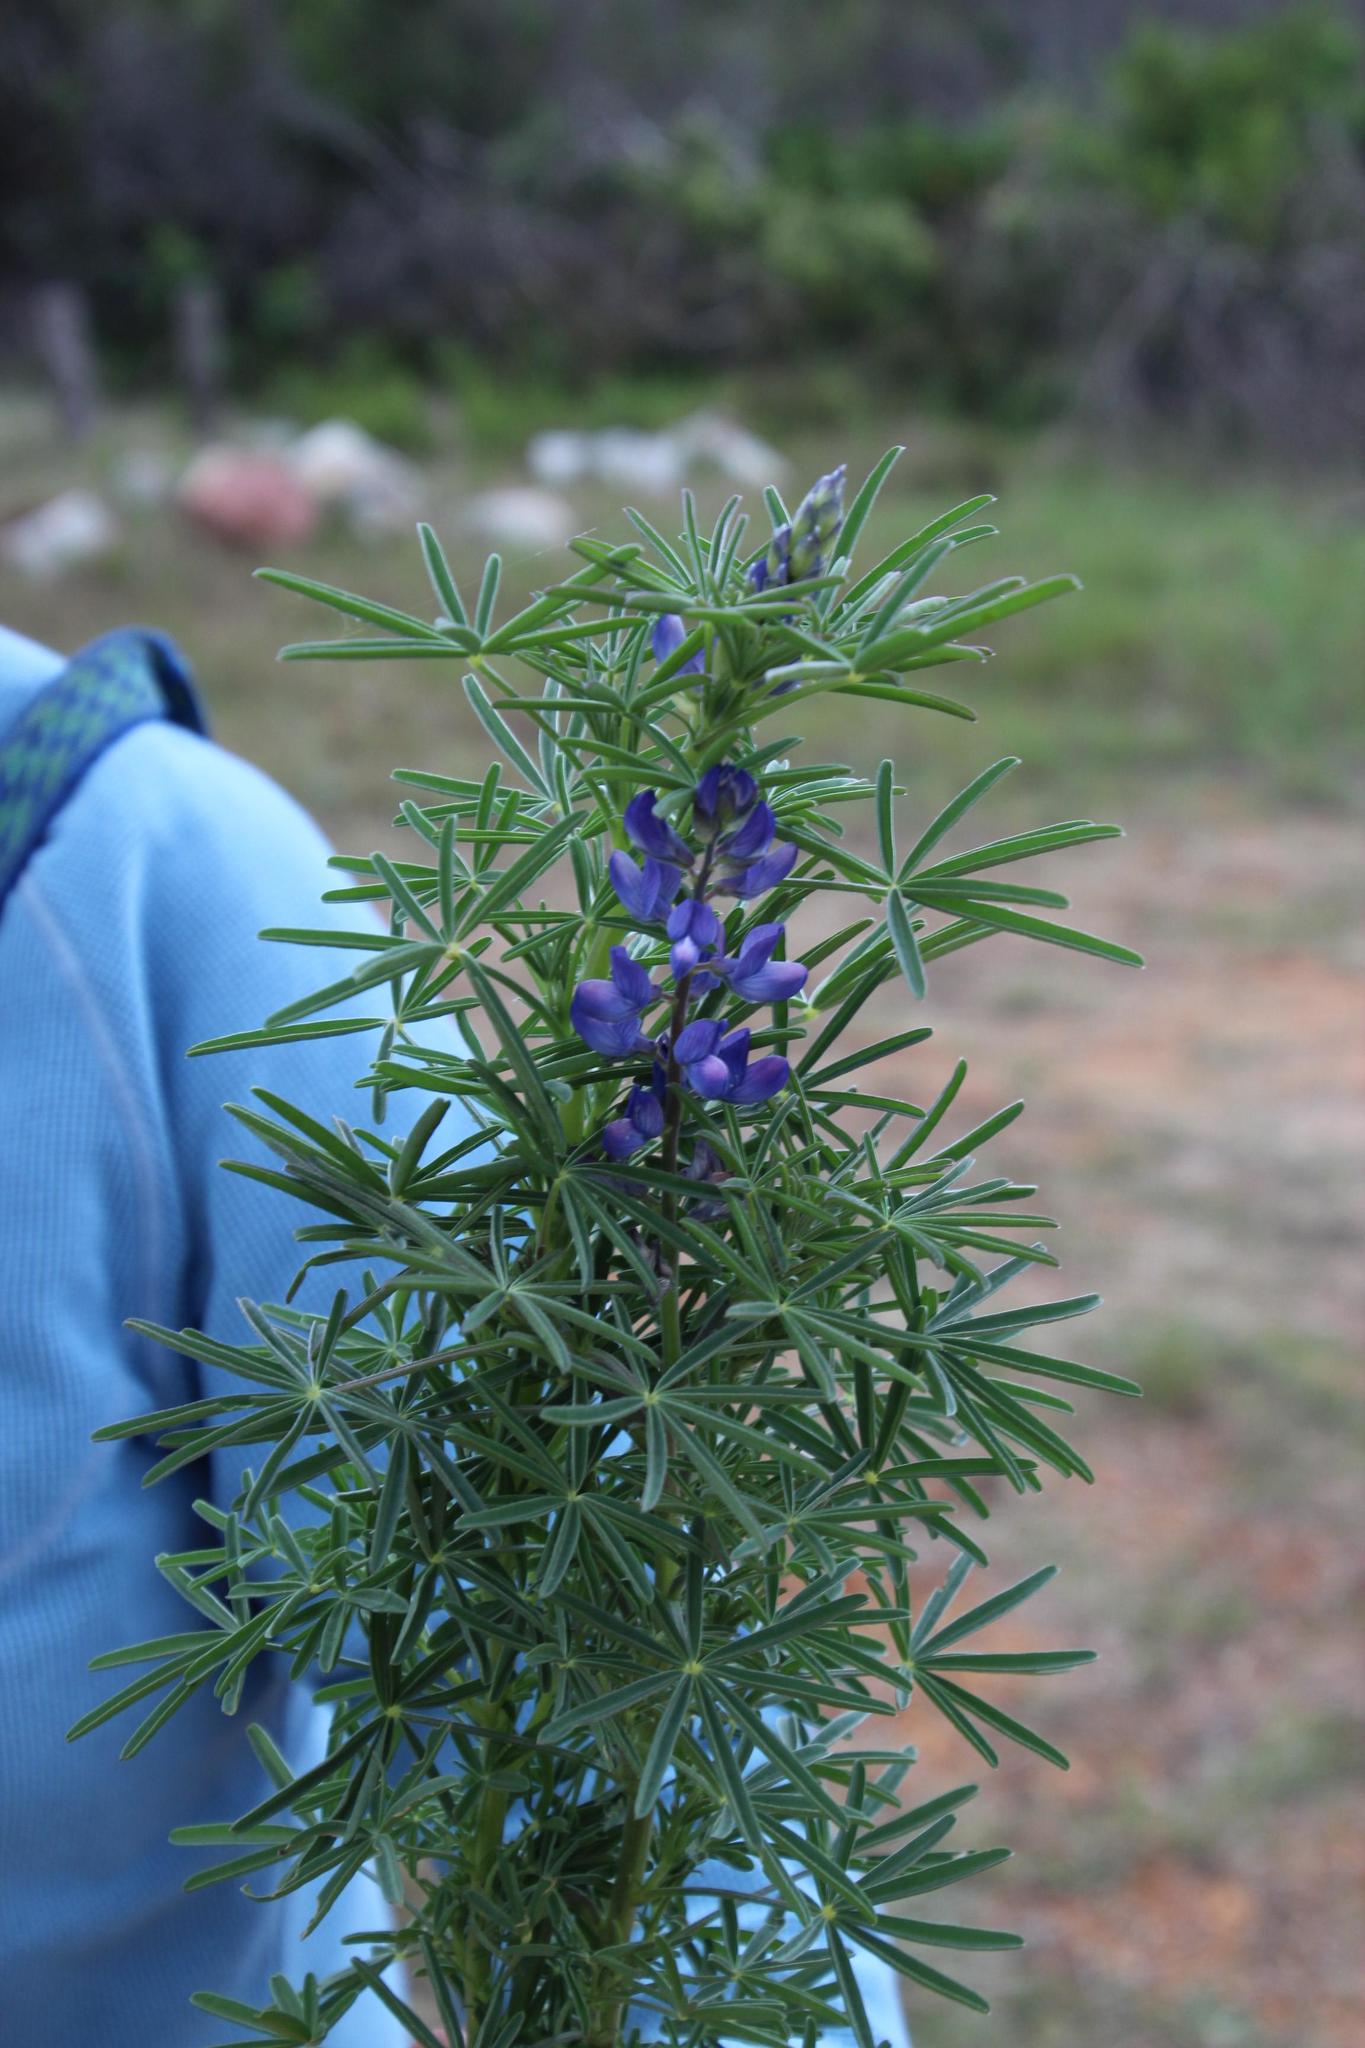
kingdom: Plantae
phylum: Tracheophyta
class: Magnoliopsida
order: Fabales
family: Fabaceae
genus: Lupinus
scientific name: Lupinus angustifolius
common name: Narrow-leaved lupin
